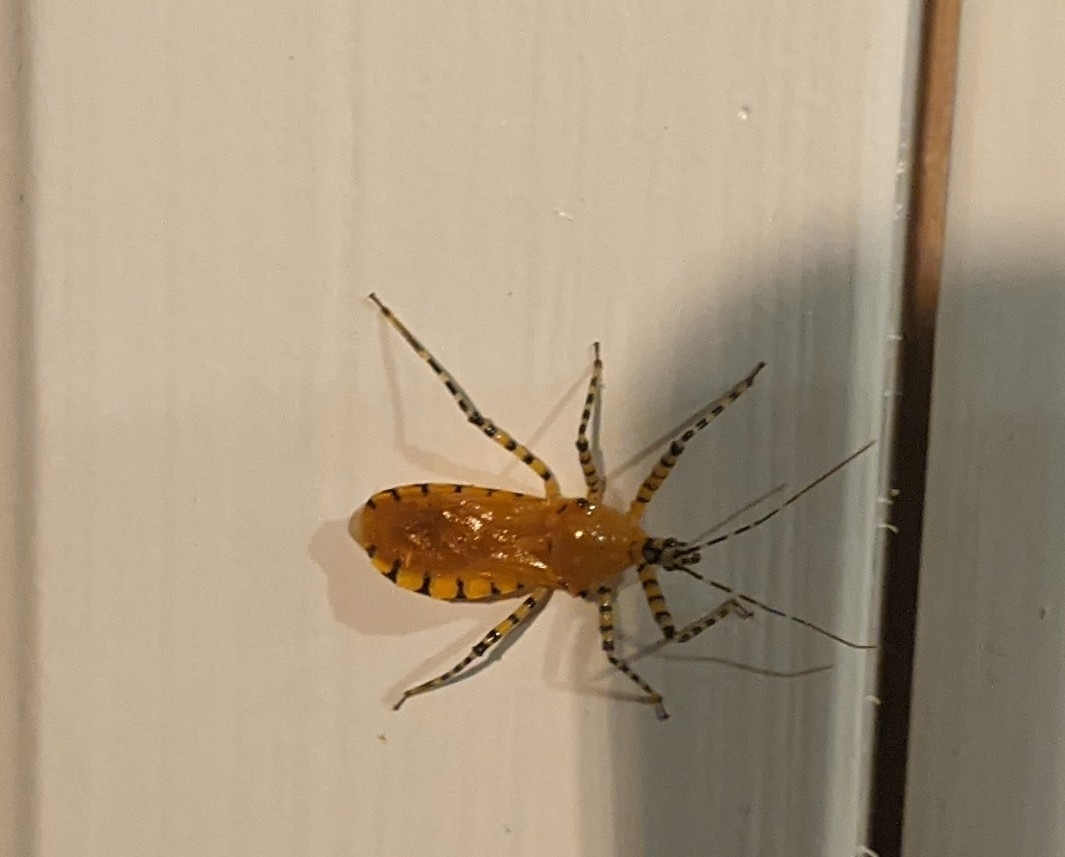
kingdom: Animalia
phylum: Arthropoda
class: Insecta
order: Hemiptera
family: Reduviidae
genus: Pselliopus
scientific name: Pselliopus barberi
